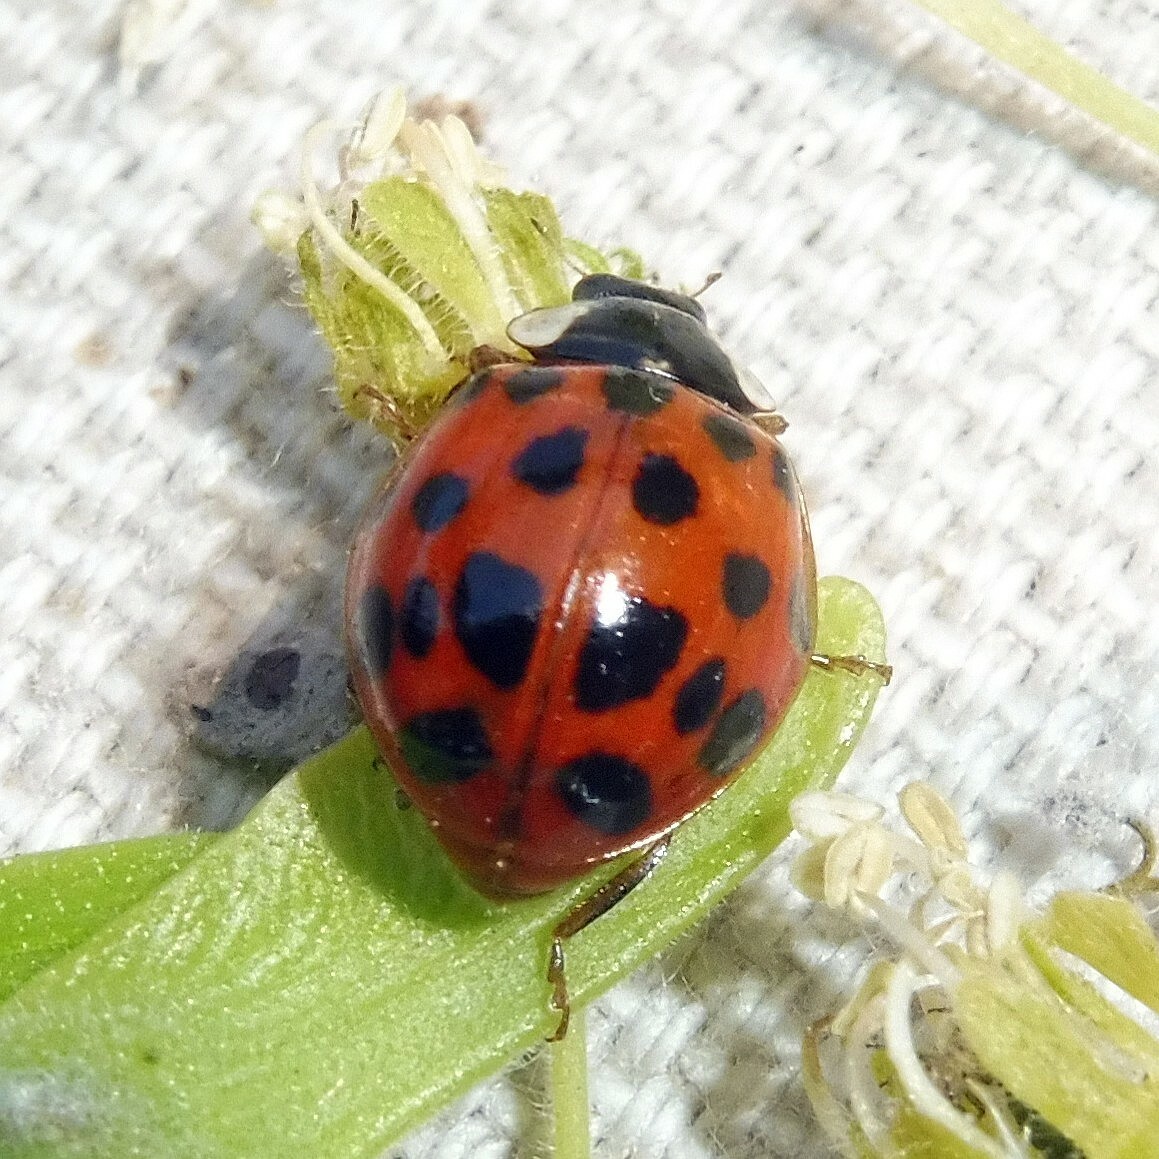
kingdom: Animalia
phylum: Arthropoda
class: Insecta
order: Coleoptera
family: Coccinellidae
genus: Harmonia
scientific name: Harmonia axyridis
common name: Harlequin ladybird
